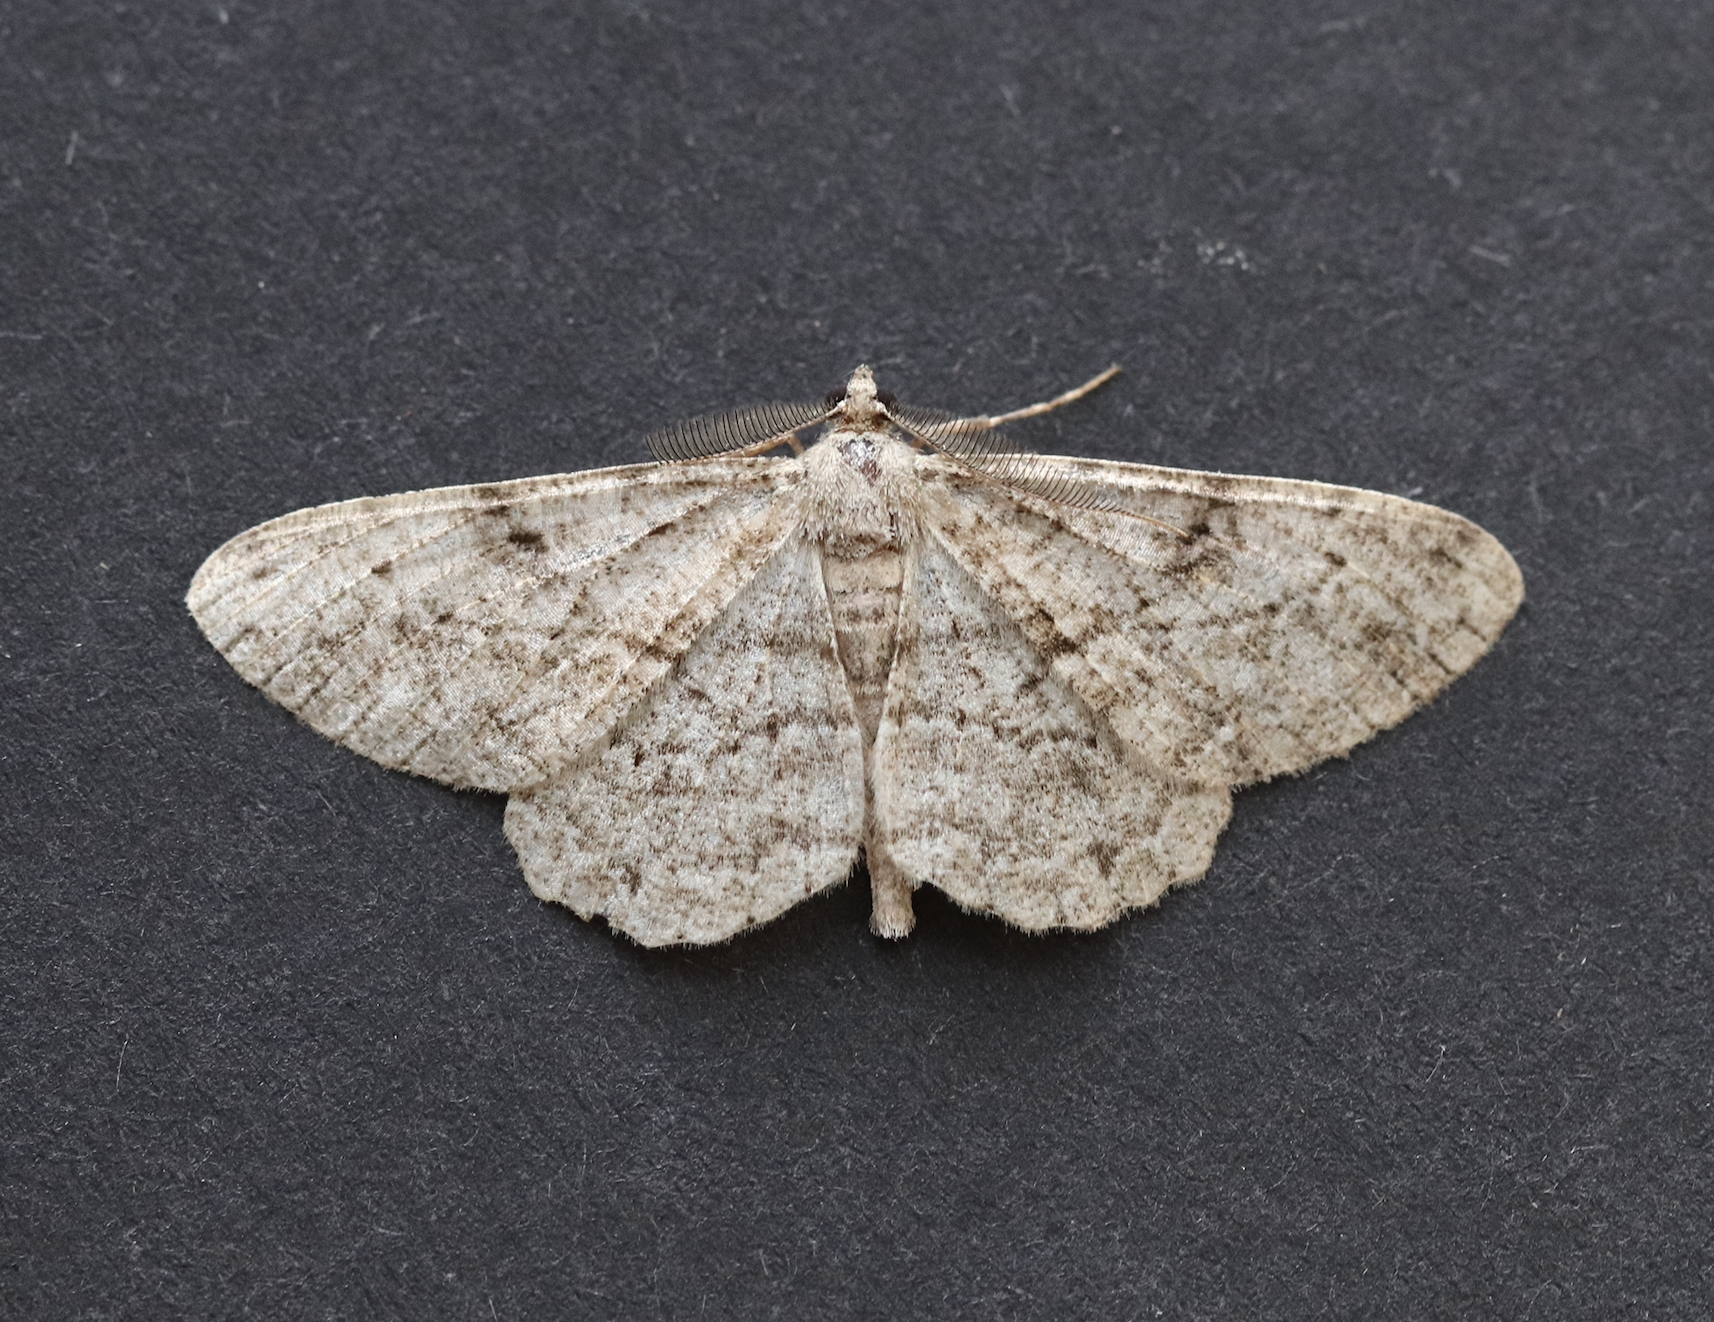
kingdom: Animalia
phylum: Arthropoda
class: Insecta
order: Lepidoptera
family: Geometridae
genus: Peribatodes
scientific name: Peribatodes rhomboidaria
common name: Willow beauty
